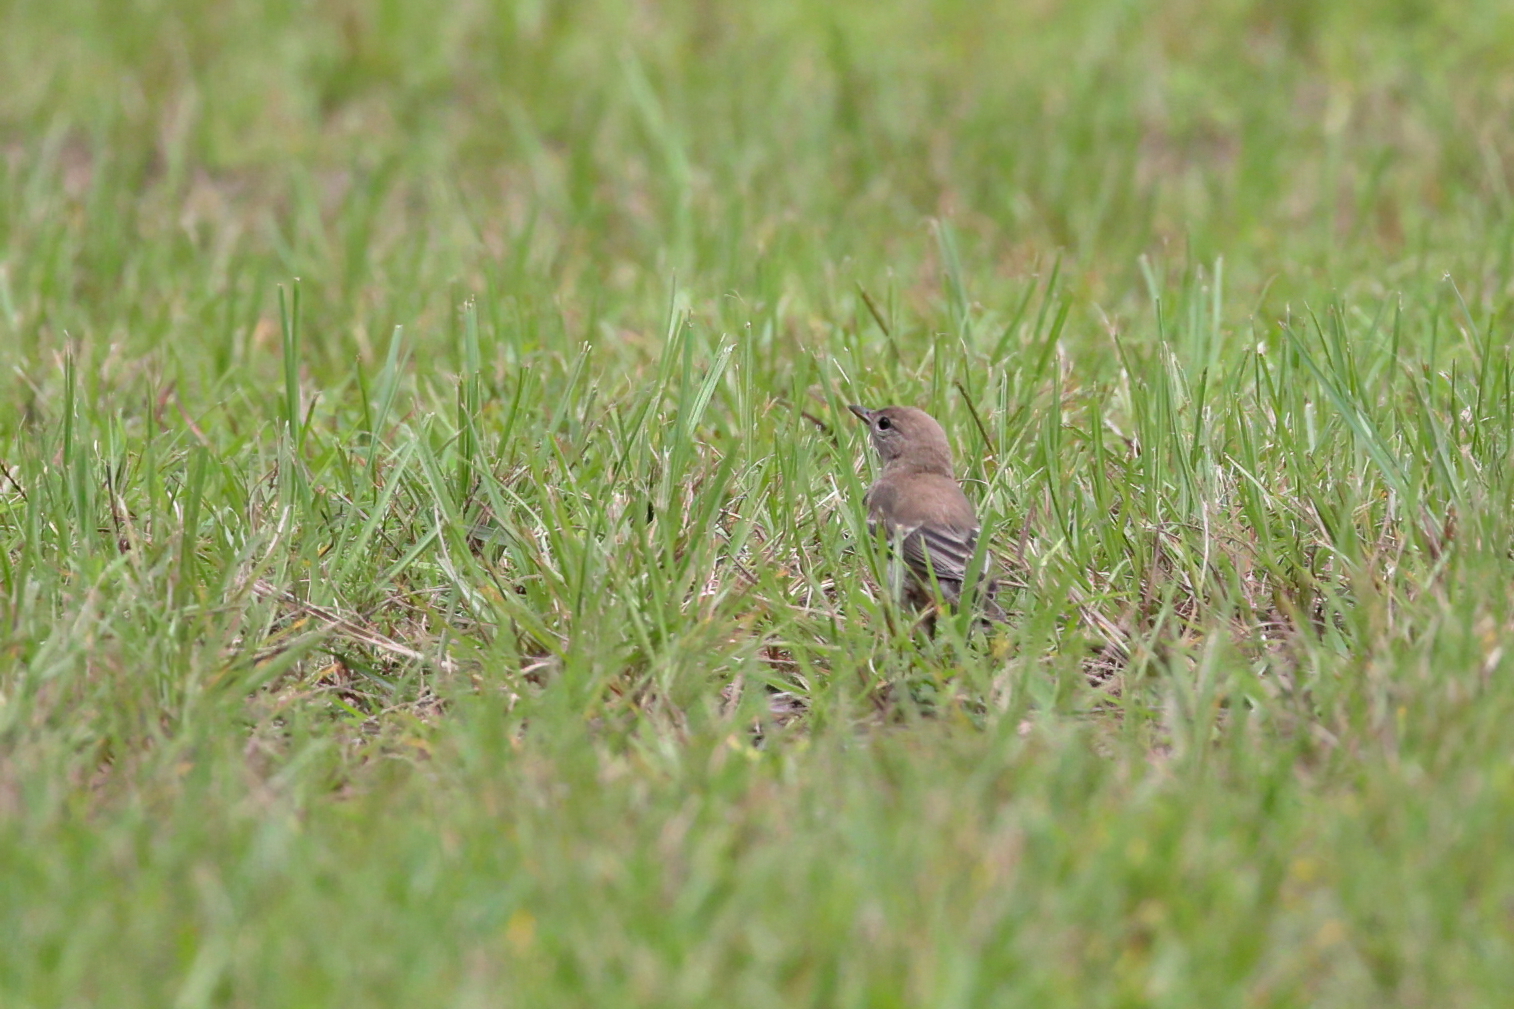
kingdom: Animalia
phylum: Chordata
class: Aves
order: Passeriformes
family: Parulidae
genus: Setophaga
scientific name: Setophaga pinus
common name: Pine warbler
